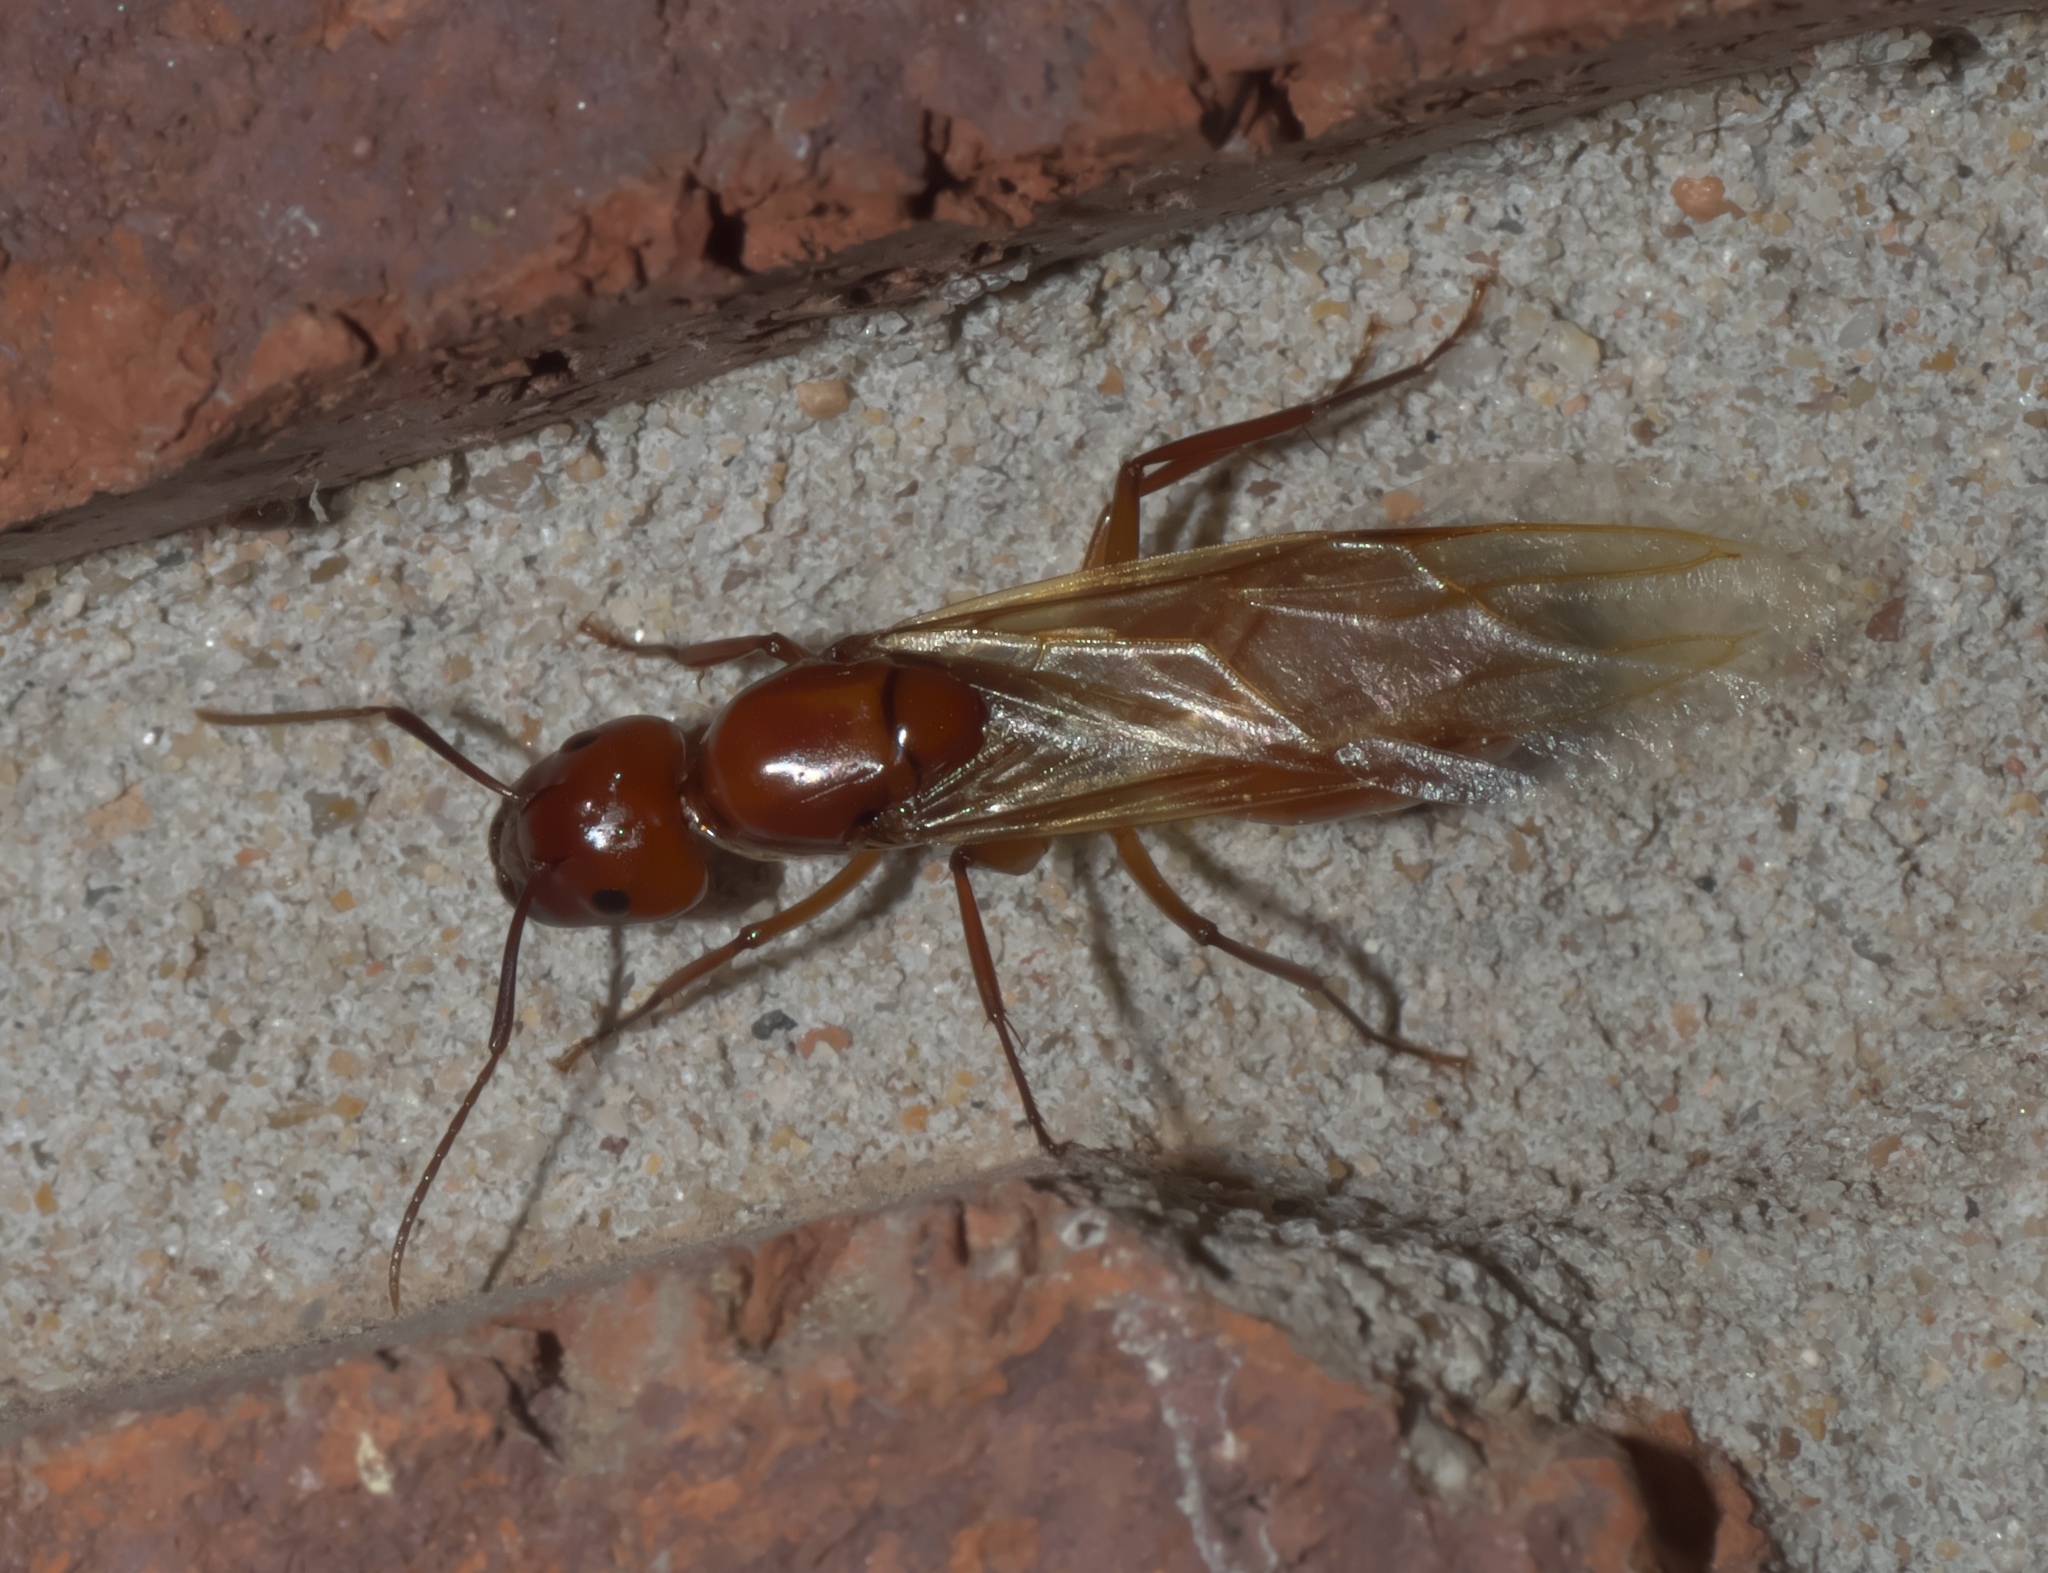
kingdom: Animalia
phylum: Arthropoda
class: Insecta
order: Hymenoptera
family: Formicidae
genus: Camponotus
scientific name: Camponotus castaneus
